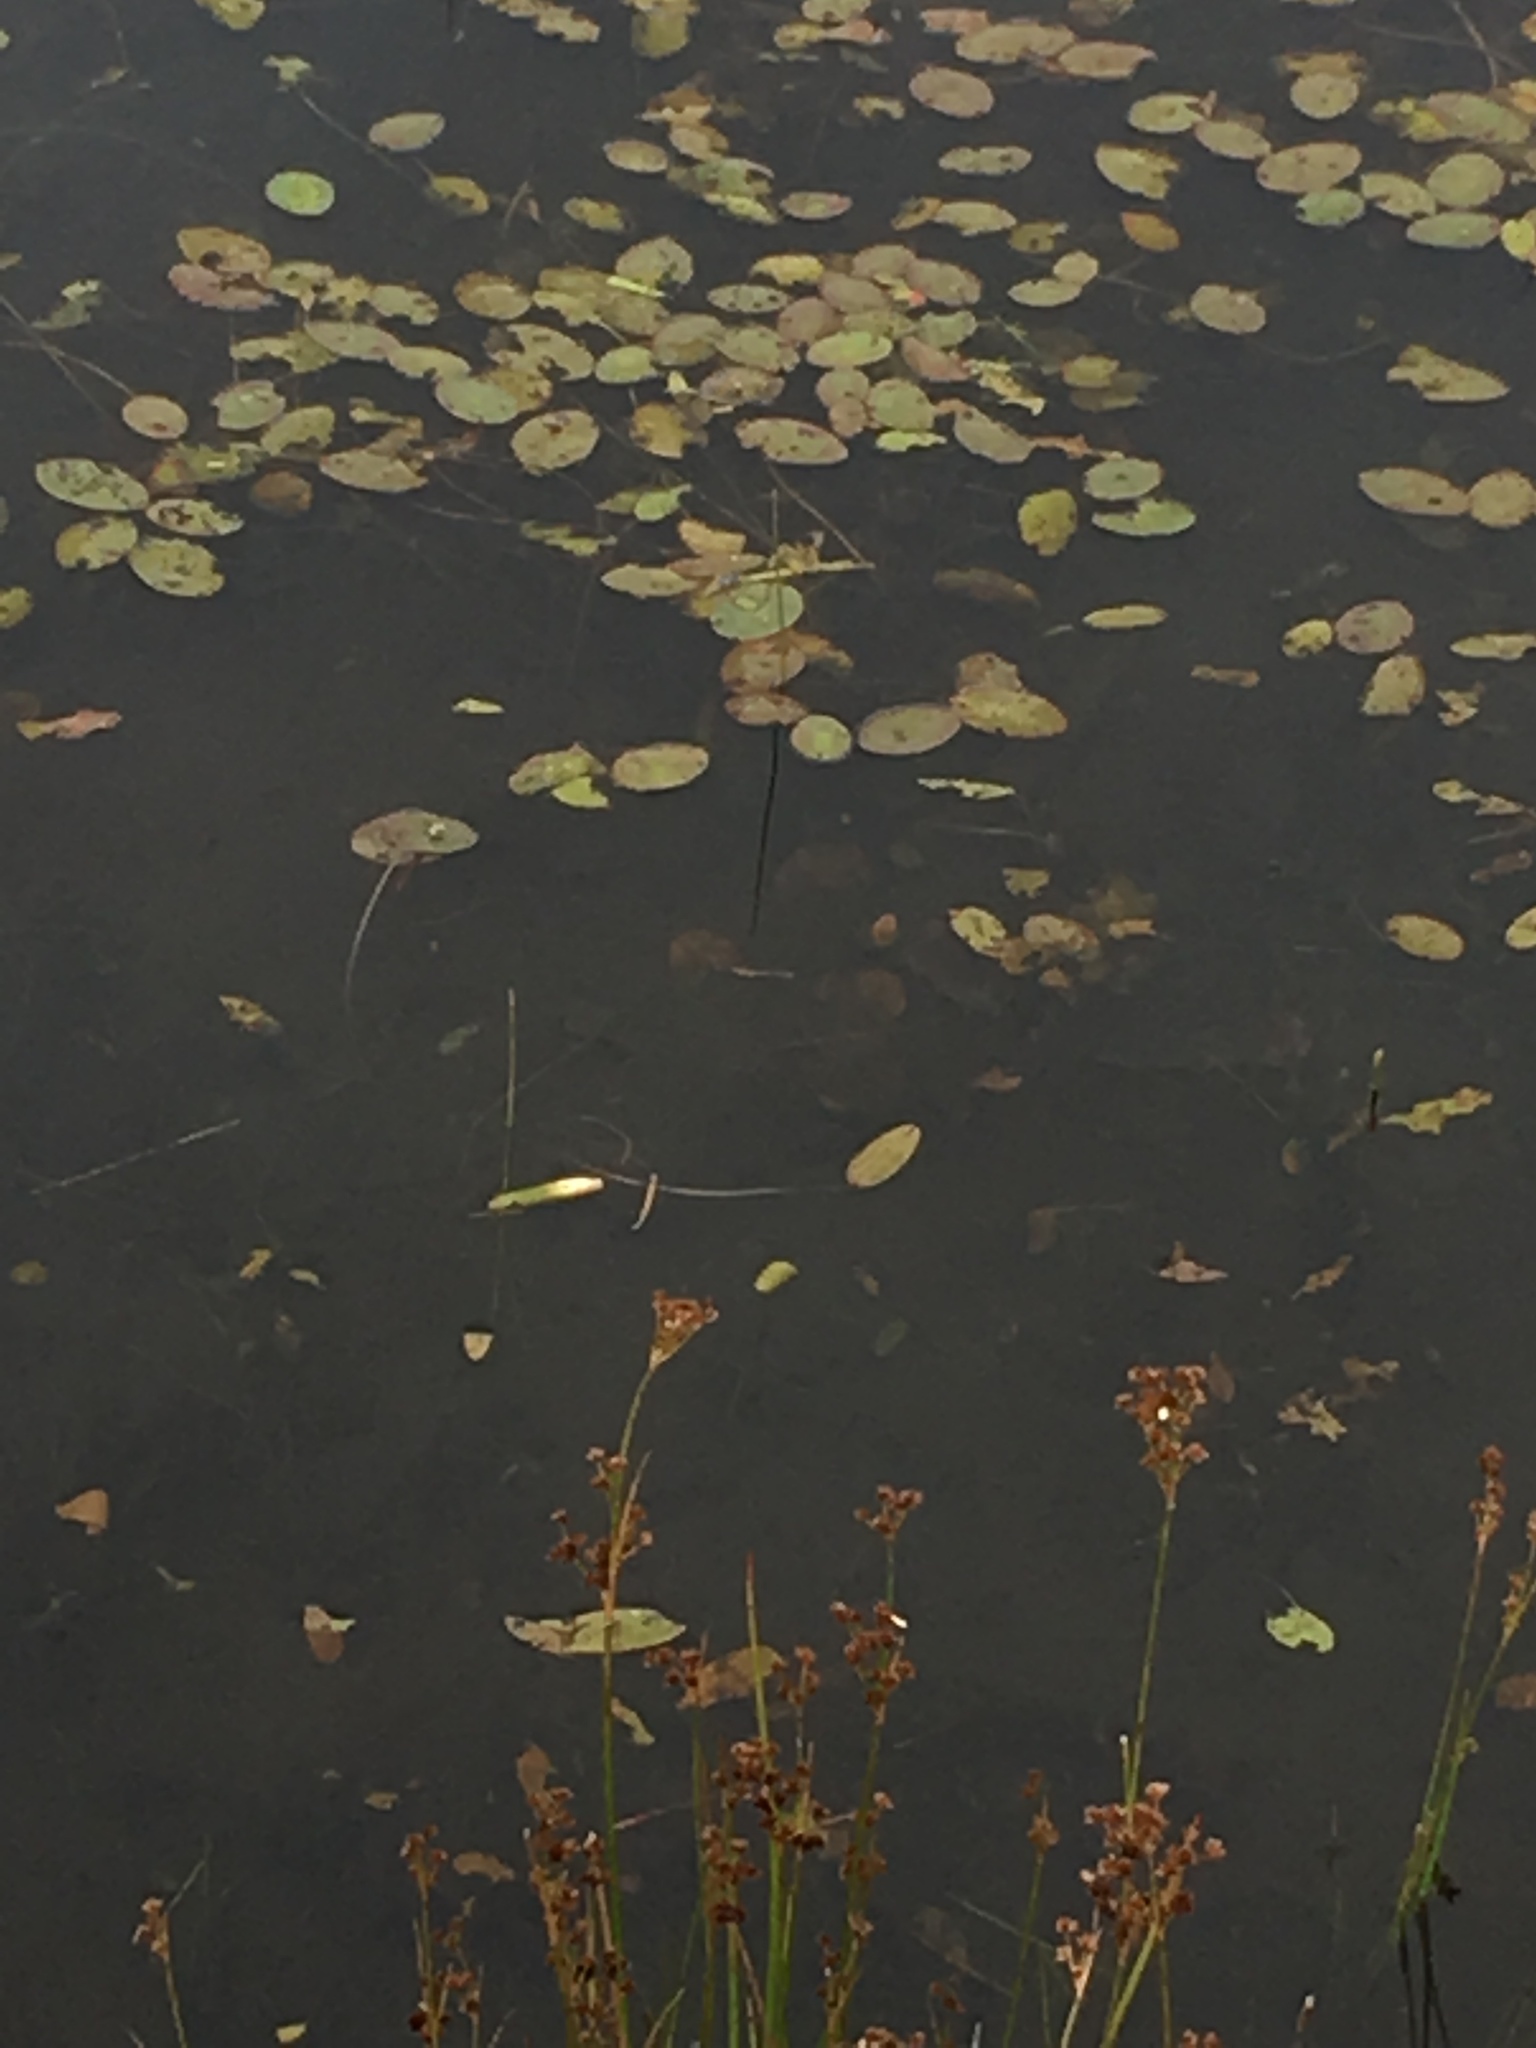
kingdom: Plantae
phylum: Tracheophyta
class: Magnoliopsida
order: Nymphaeales
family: Cabombaceae
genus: Brasenia
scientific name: Brasenia schreberi
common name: Water-shield
